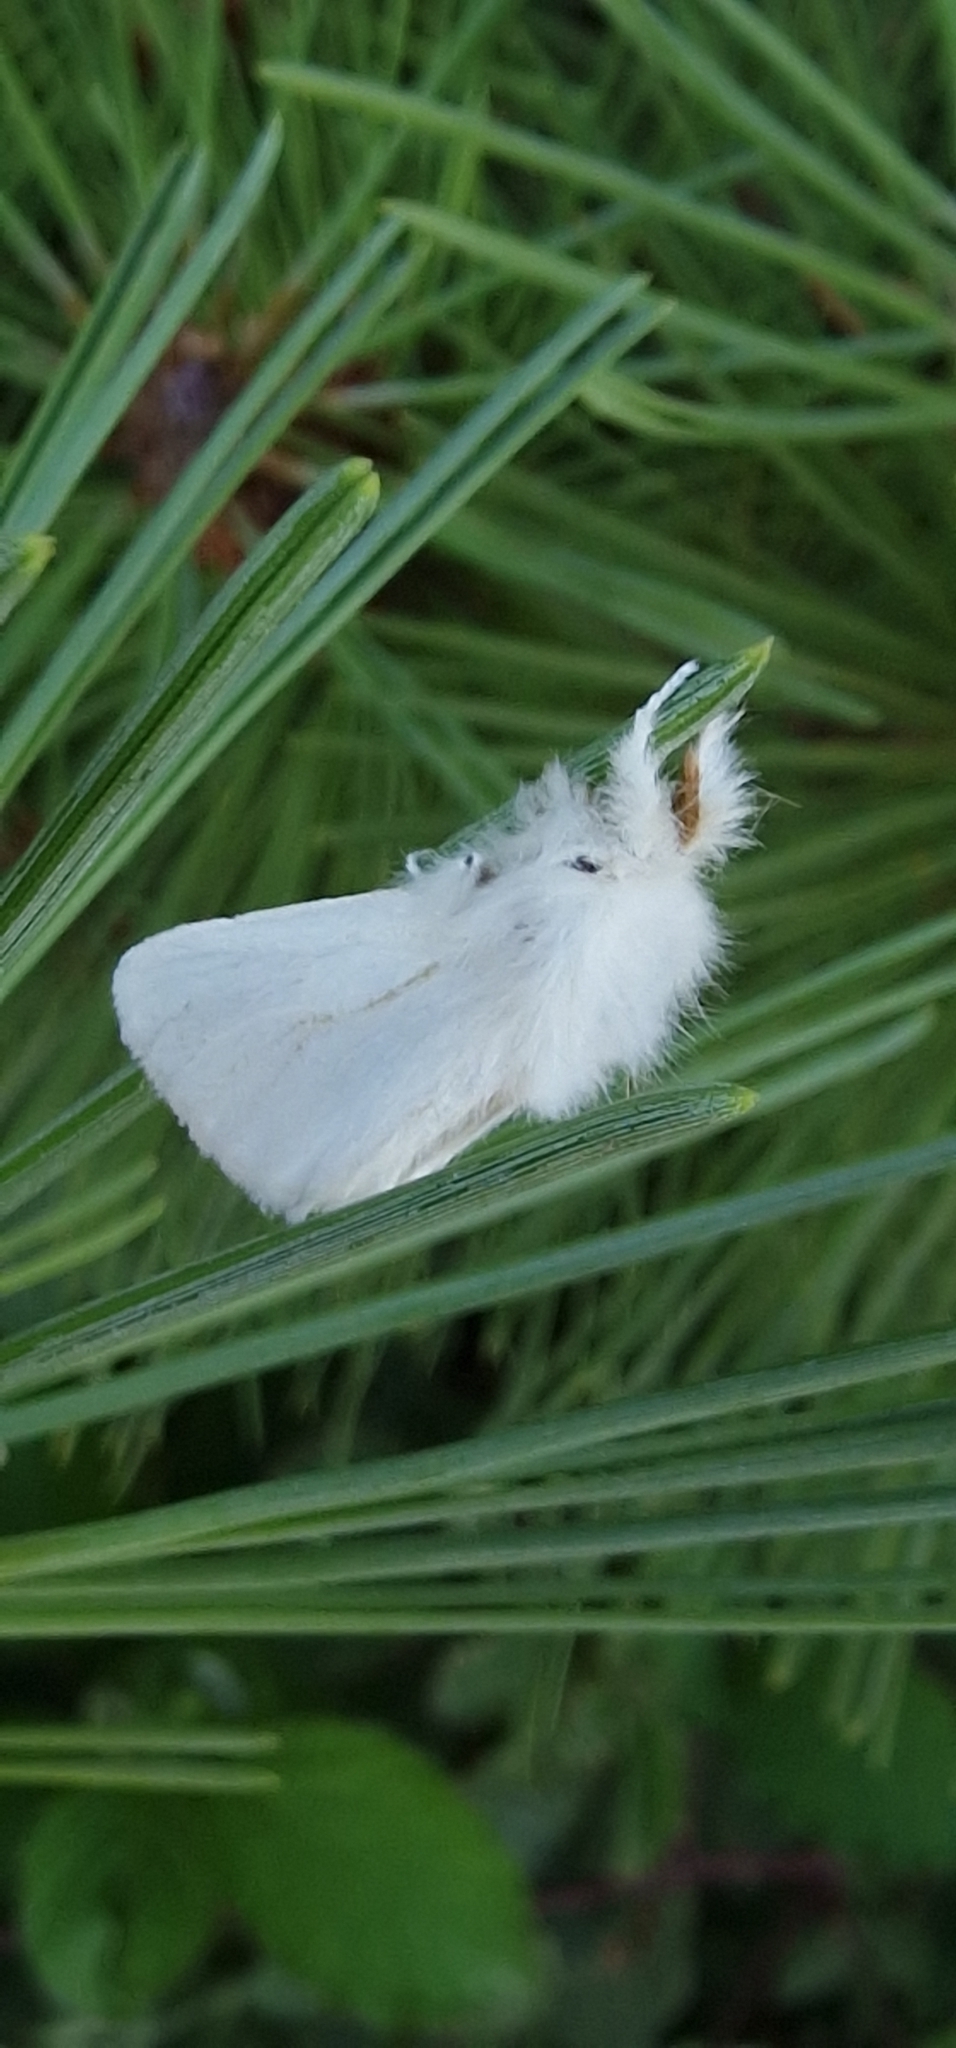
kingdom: Animalia
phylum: Arthropoda
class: Insecta
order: Lepidoptera
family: Erebidae
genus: Euproctis
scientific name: Euproctis chrysorrhoea
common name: Brown-tail
